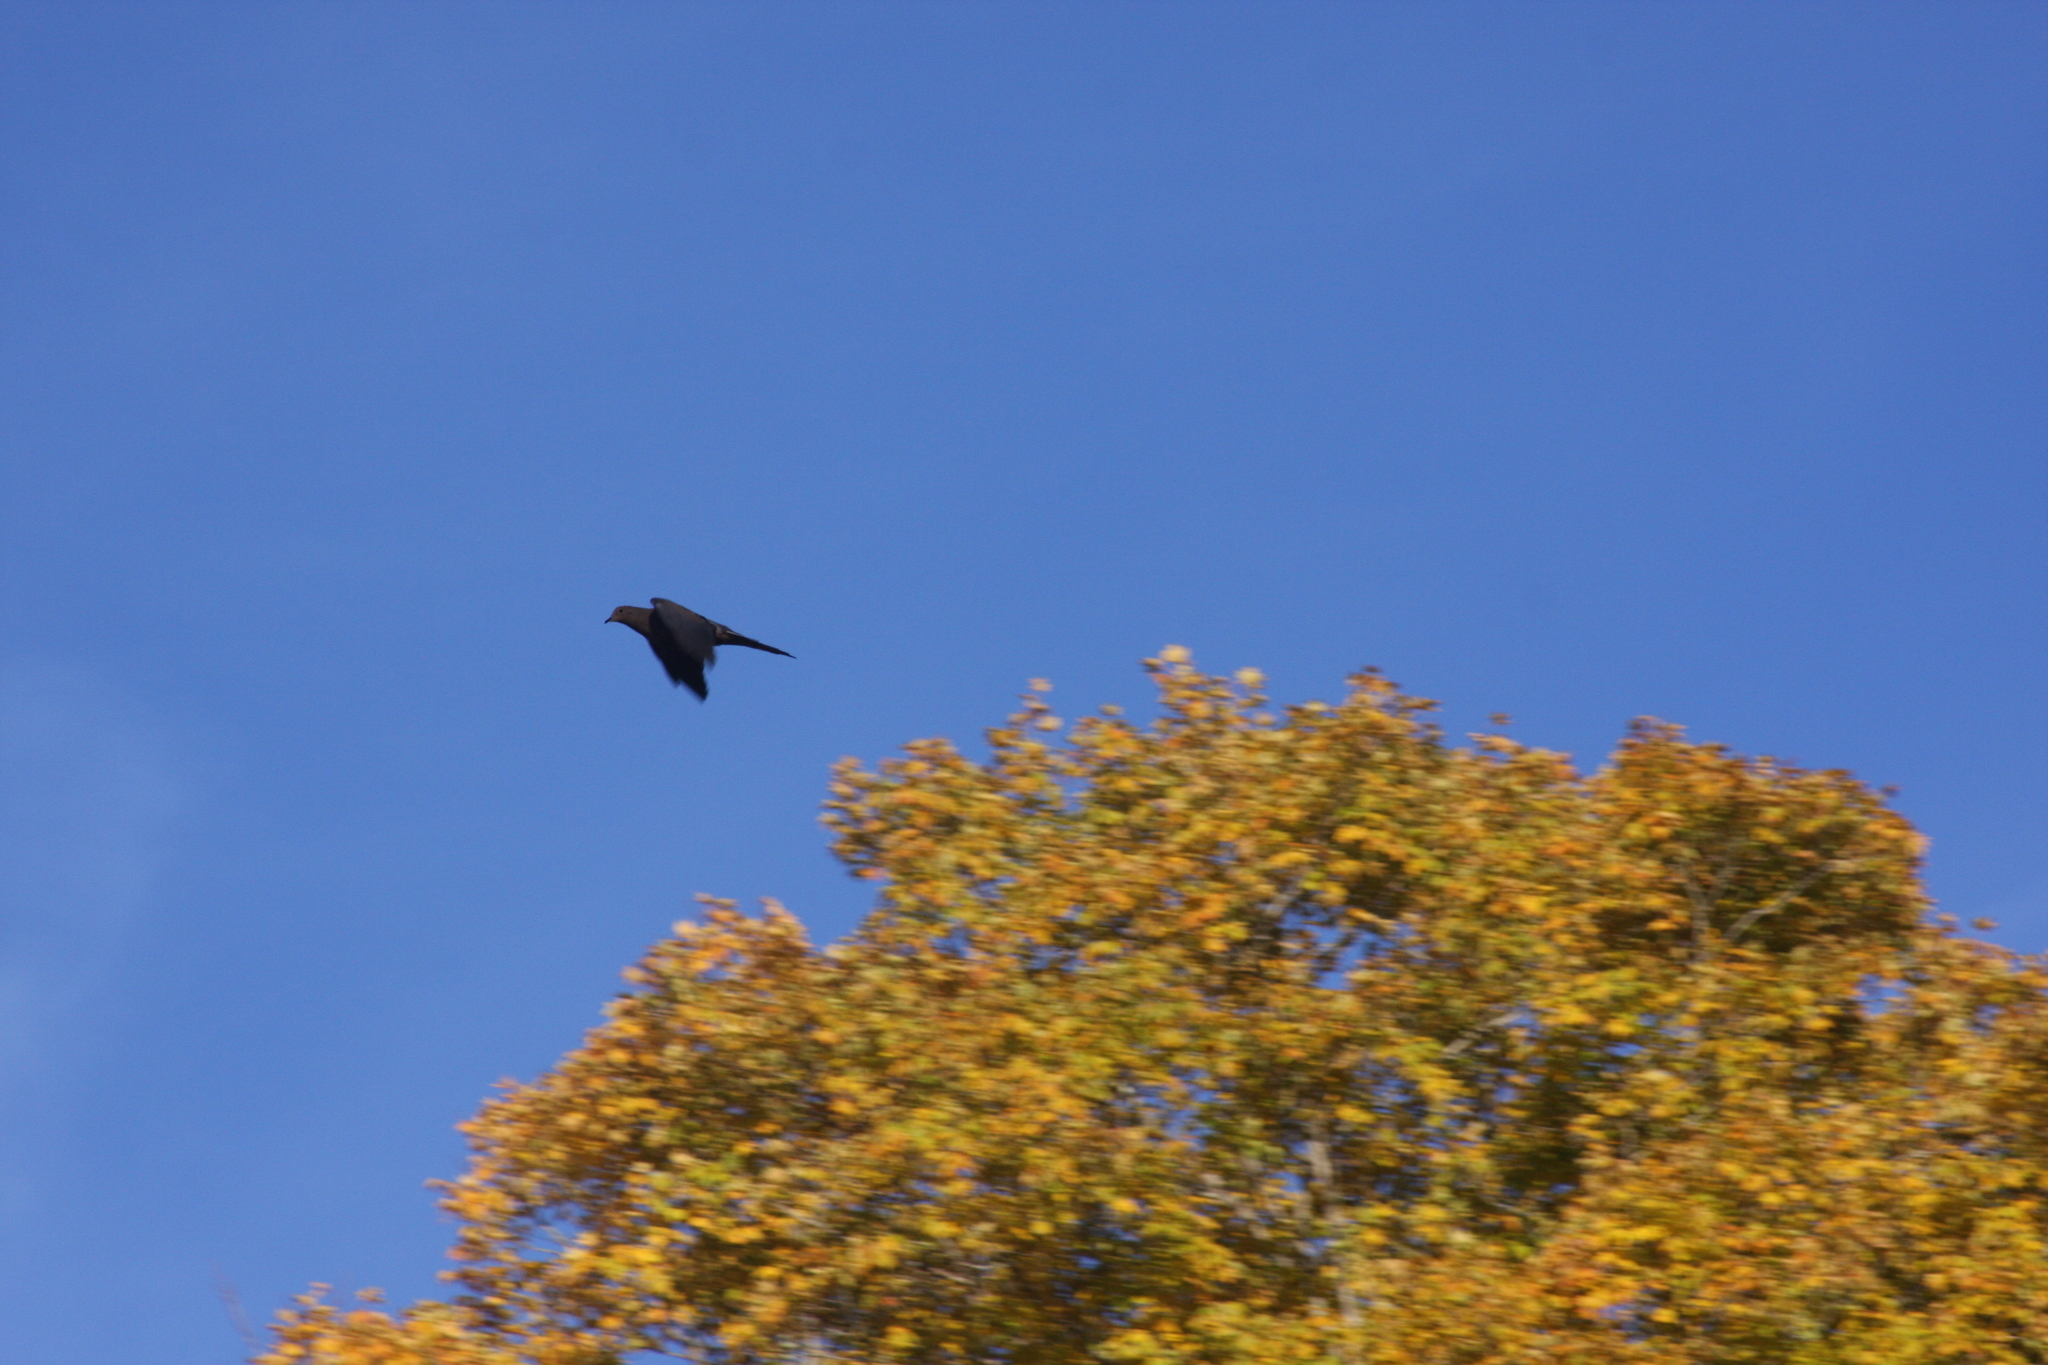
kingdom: Animalia
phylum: Chordata
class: Aves
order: Columbiformes
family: Columbidae
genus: Zenaida
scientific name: Zenaida macroura
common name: Mourning dove
